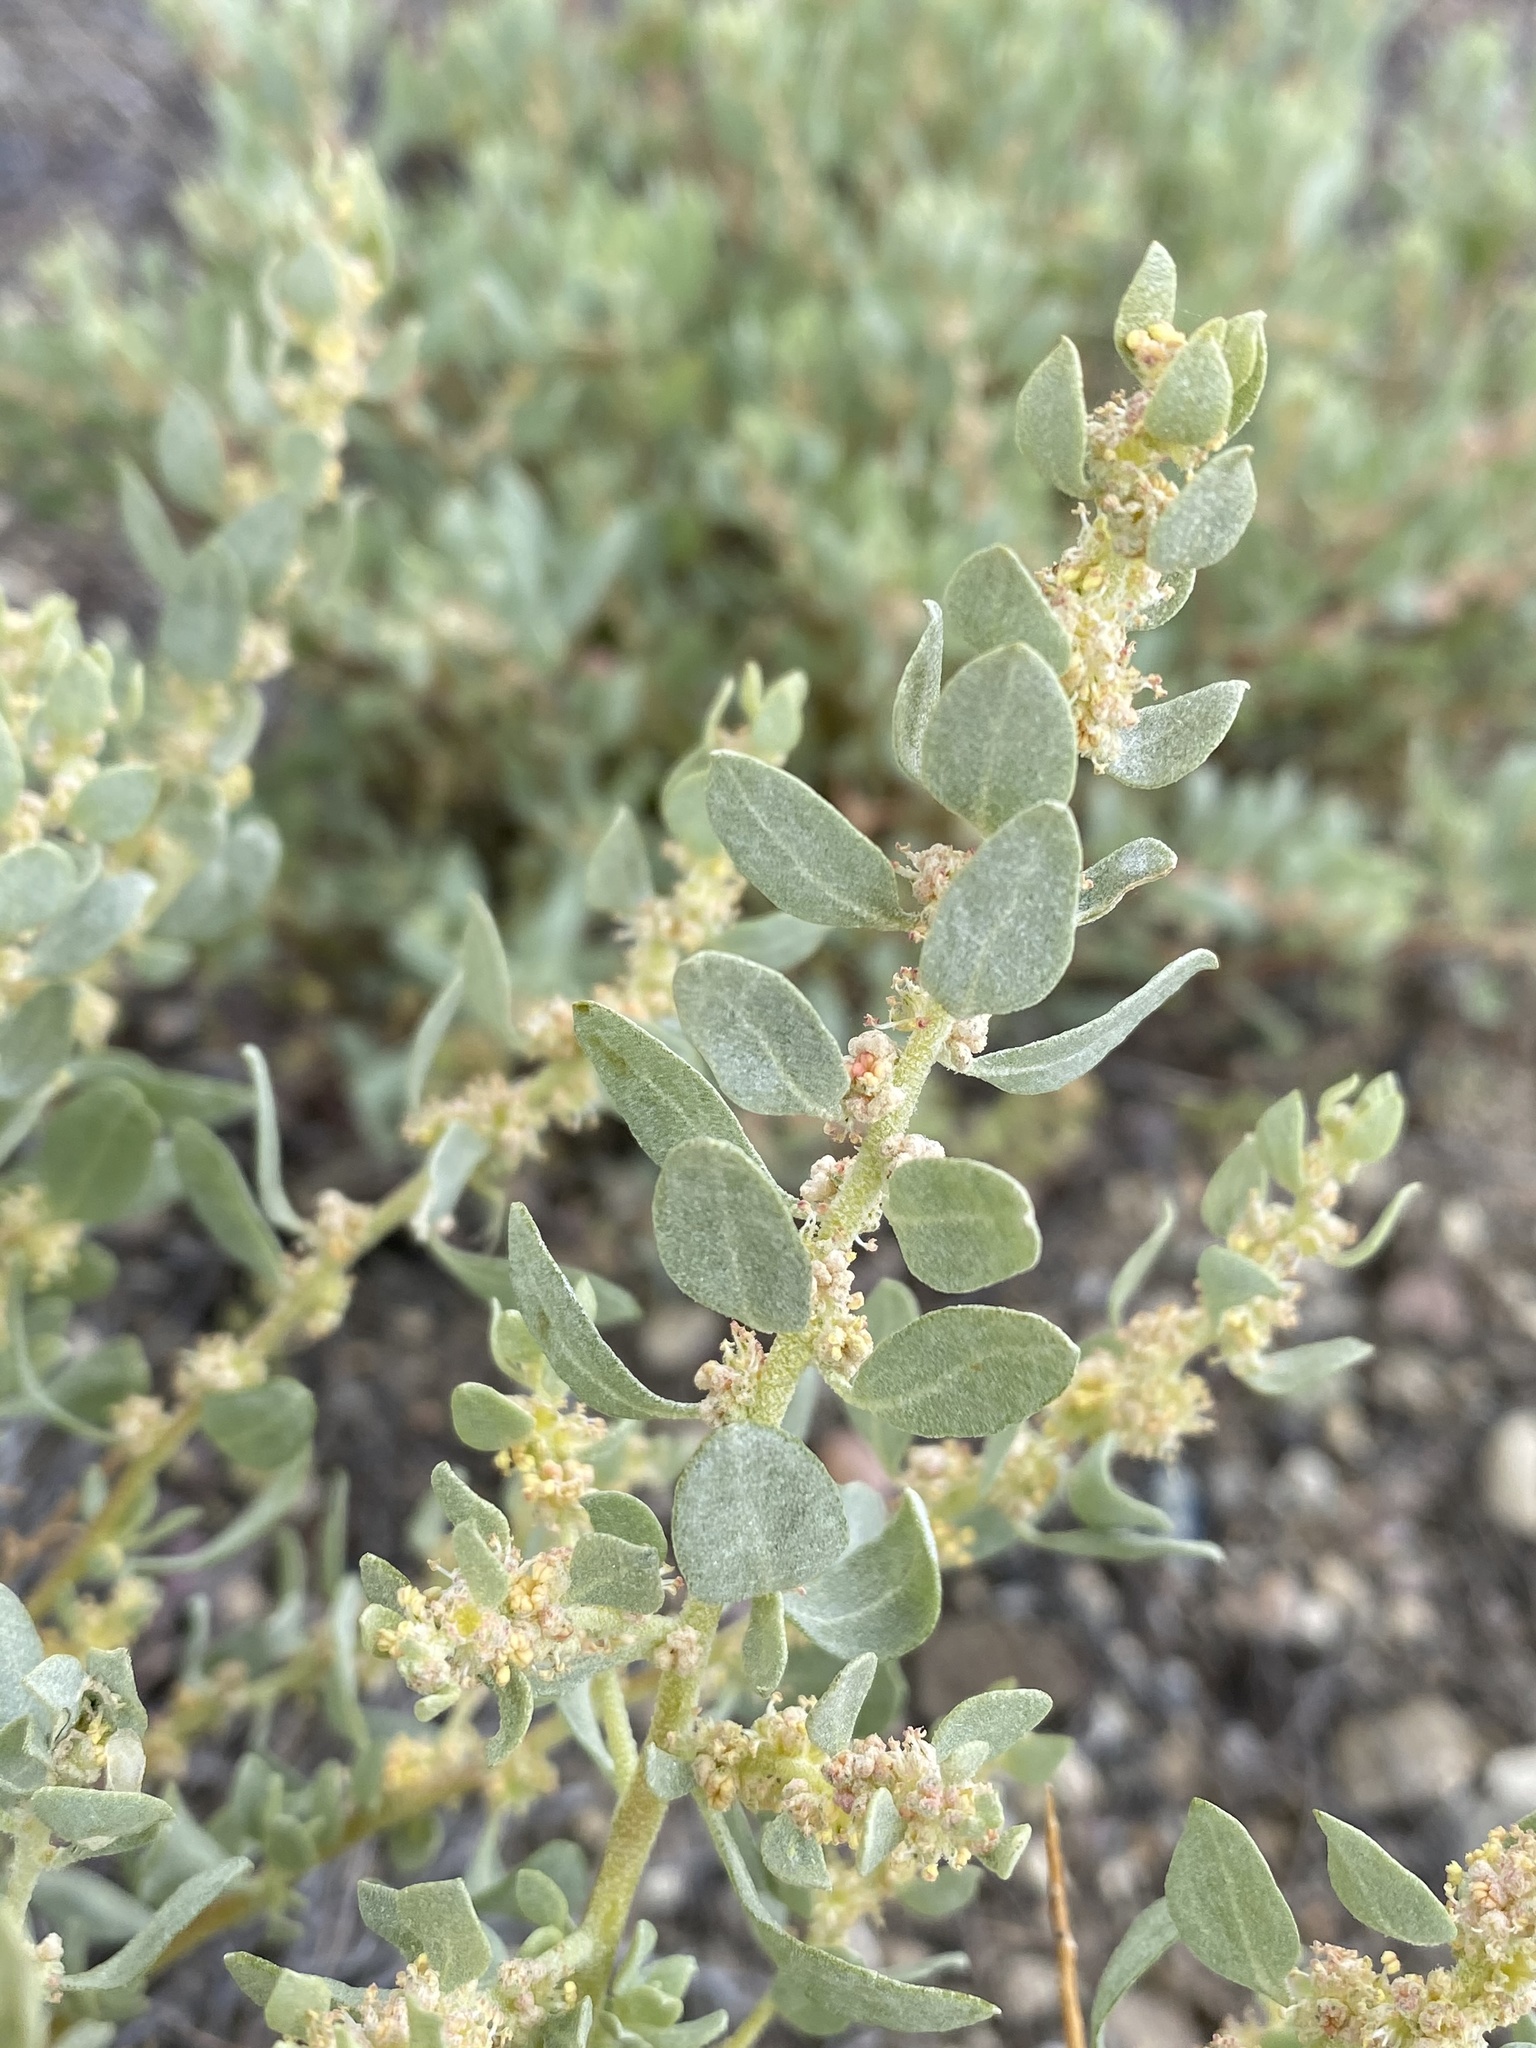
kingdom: Plantae
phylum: Tracheophyta
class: Magnoliopsida
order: Caryophyllales
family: Amaranthaceae
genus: Atriplex
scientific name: Atriplex confertifolia
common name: Shadscale
